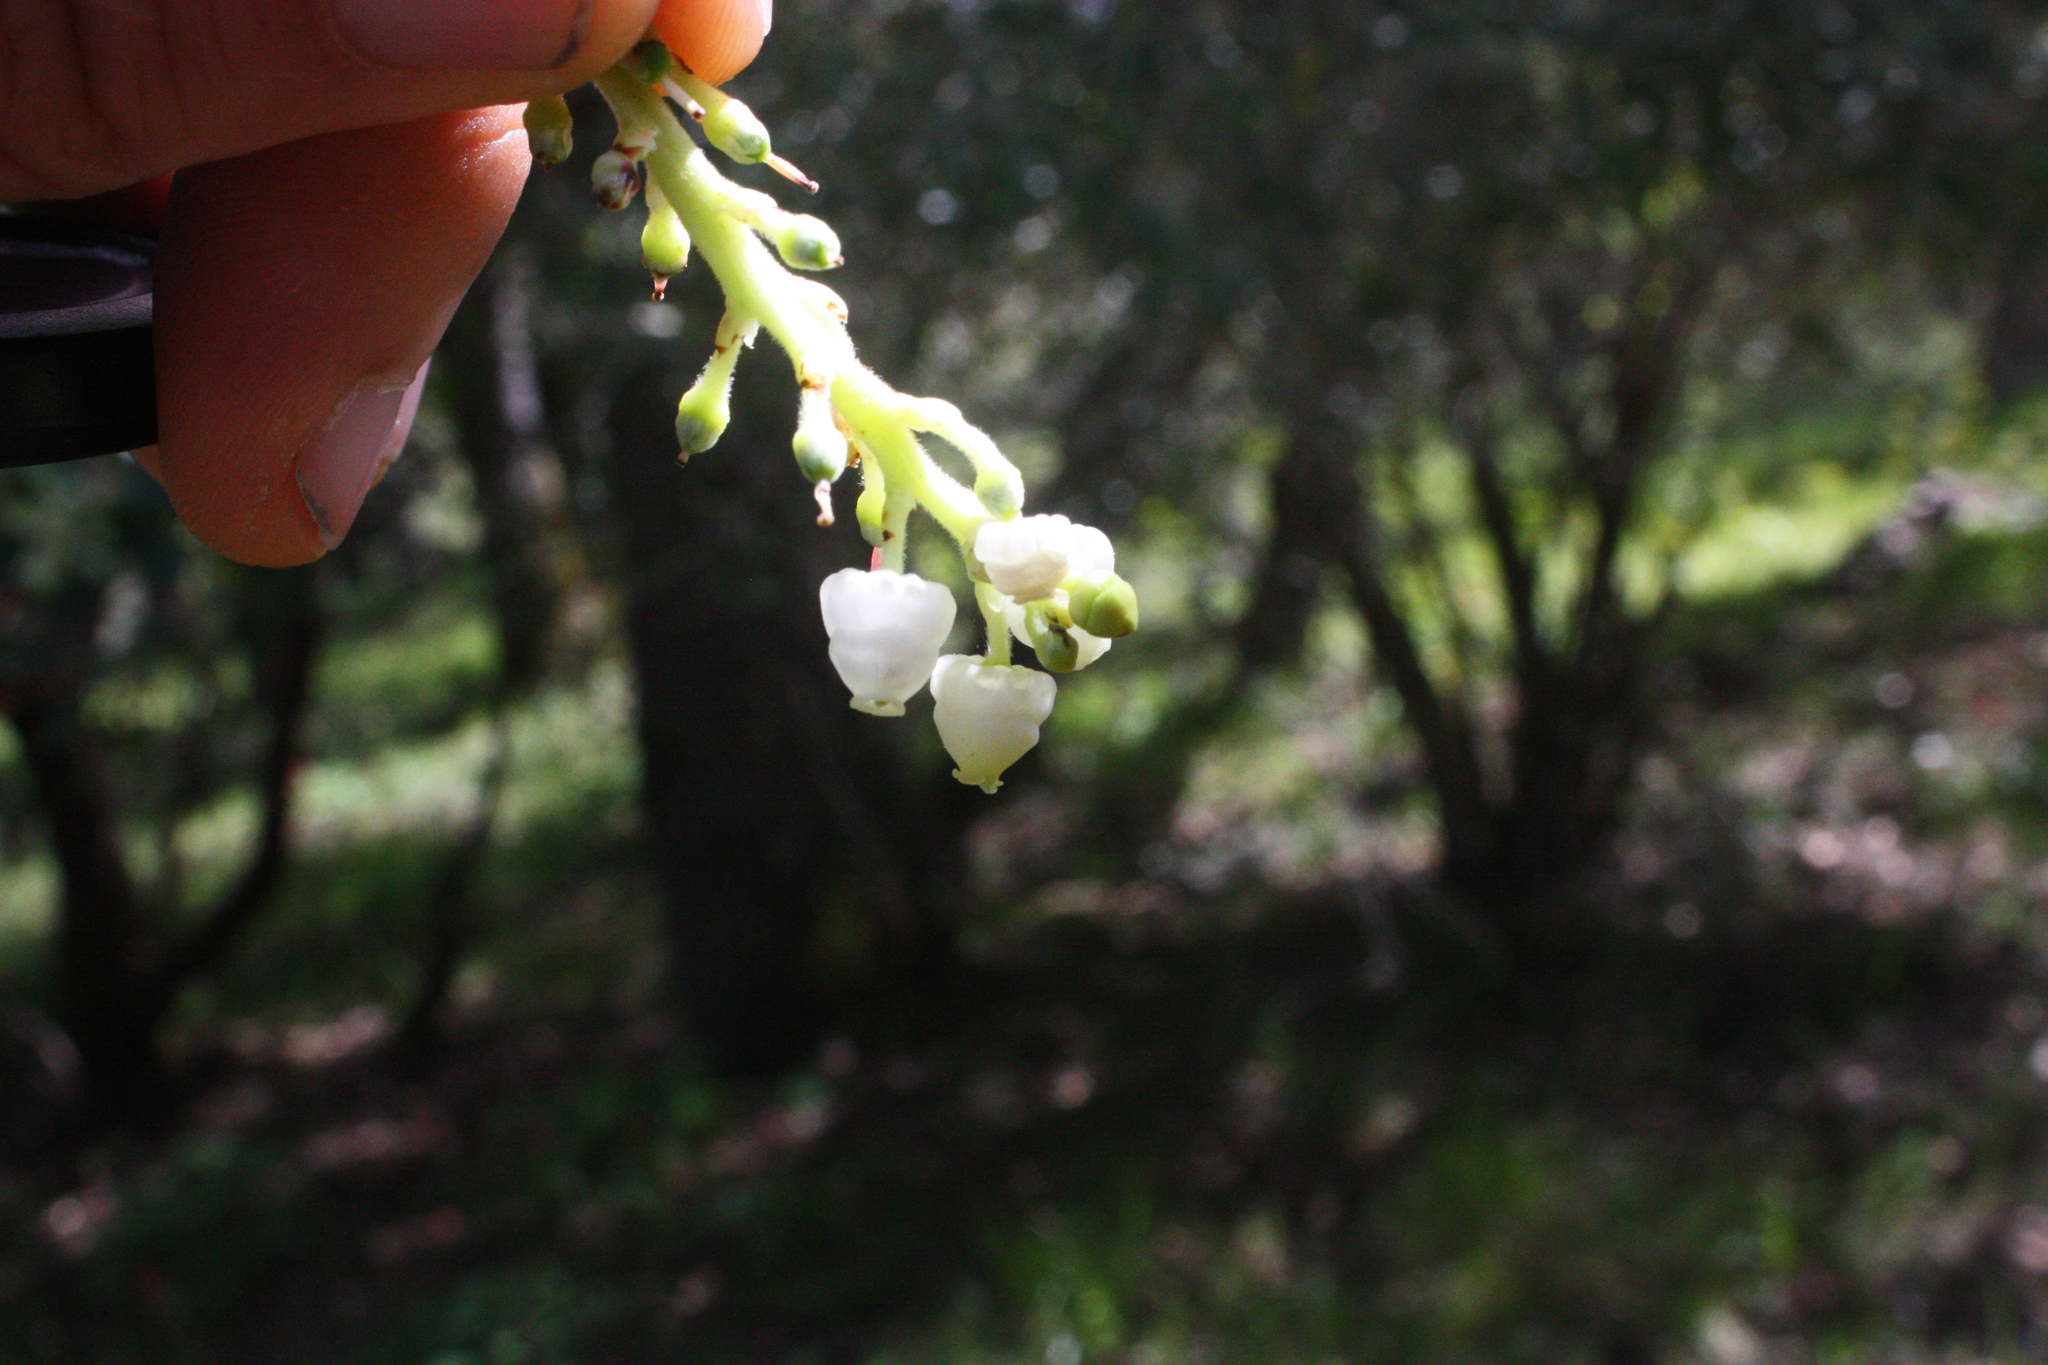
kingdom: Plantae
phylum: Tracheophyta
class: Magnoliopsida
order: Ericales
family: Ericaceae
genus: Arbutus
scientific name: Arbutus menziesii
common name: Pacific madrone
